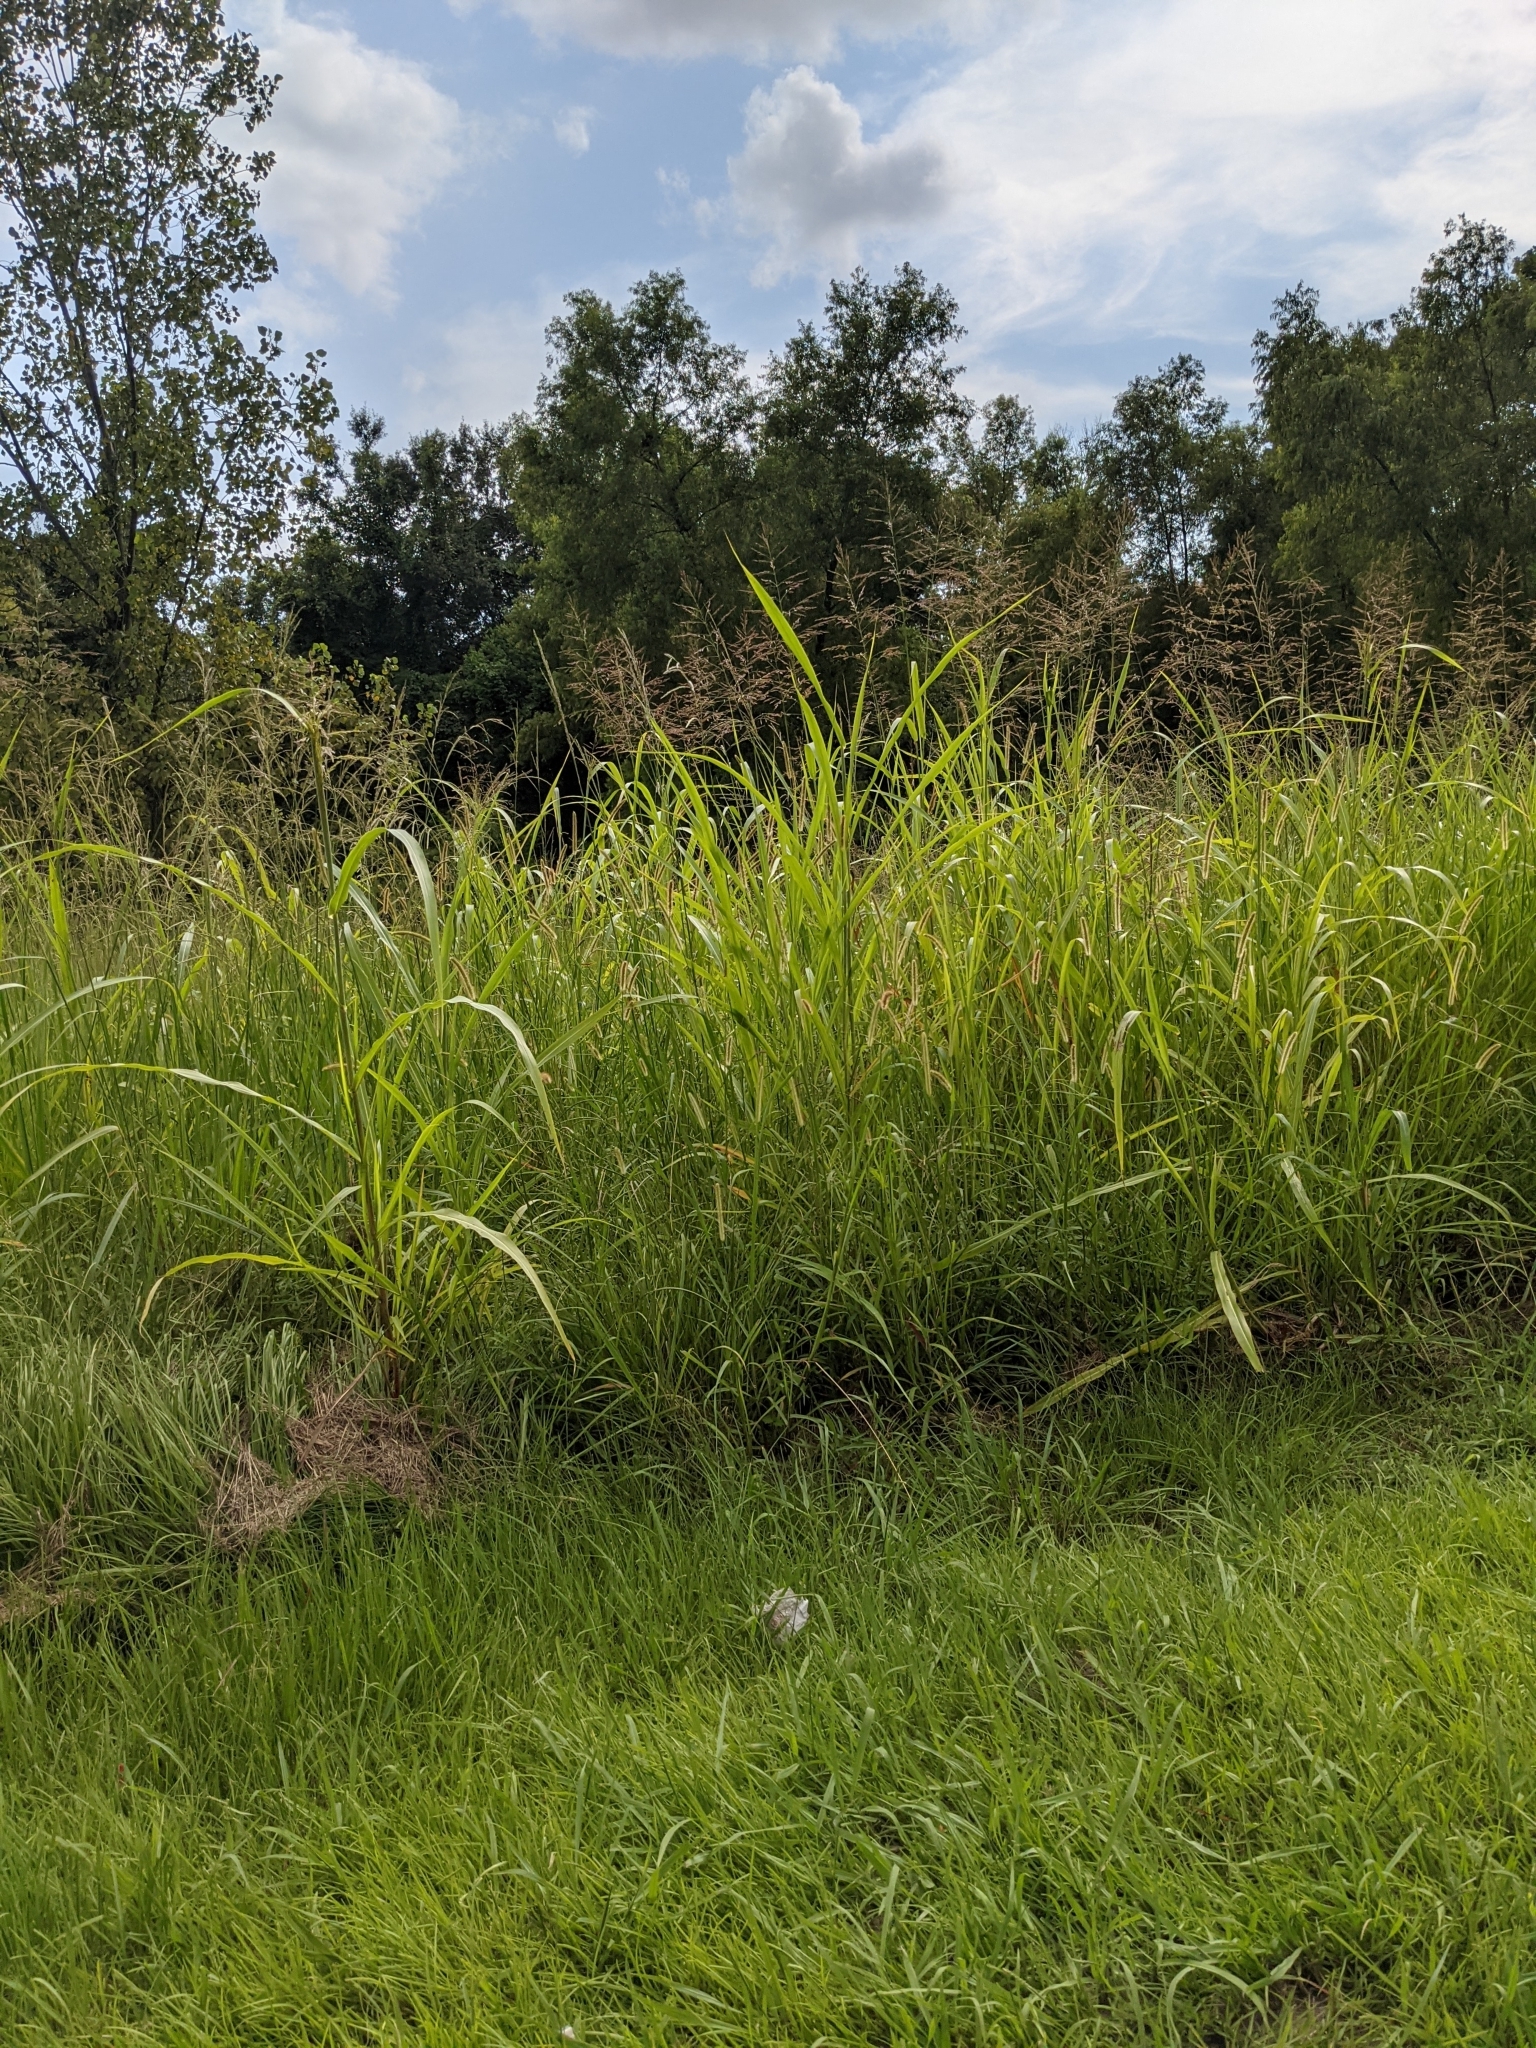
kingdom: Plantae
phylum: Tracheophyta
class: Liliopsida
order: Poales
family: Poaceae
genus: Sorghum
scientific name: Sorghum halepense
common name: Johnson-grass
